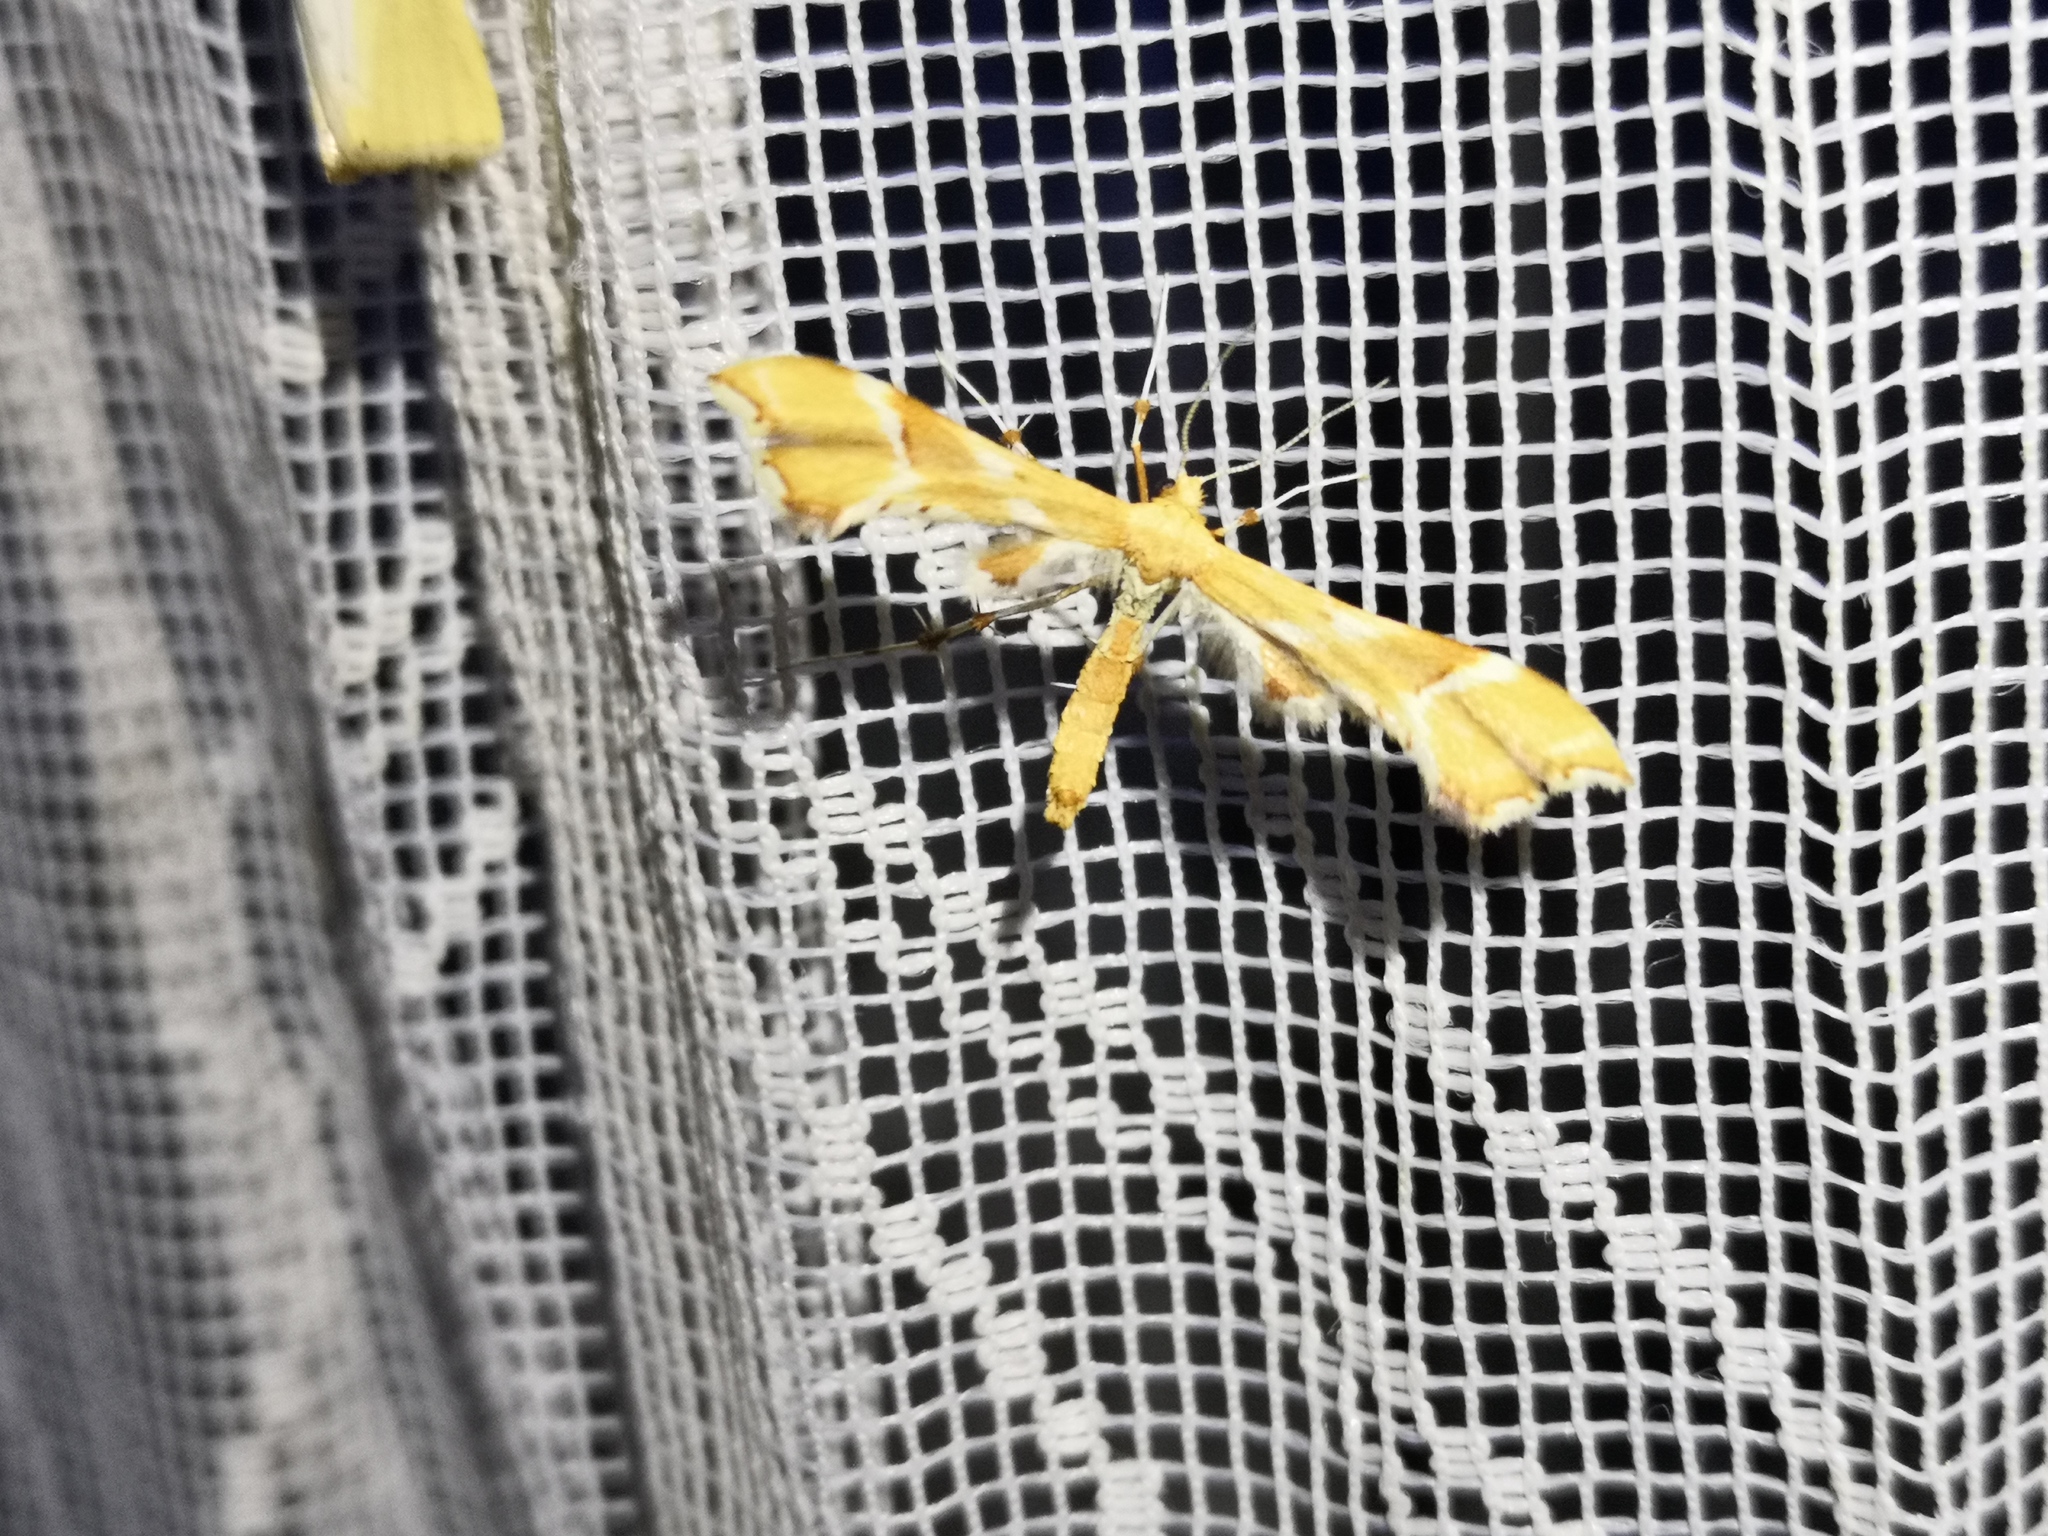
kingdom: Animalia
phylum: Arthropoda
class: Insecta
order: Lepidoptera
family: Pterophoridae
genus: Cnaemidophorus
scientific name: Cnaemidophorus rhododactyla
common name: Rose plume
